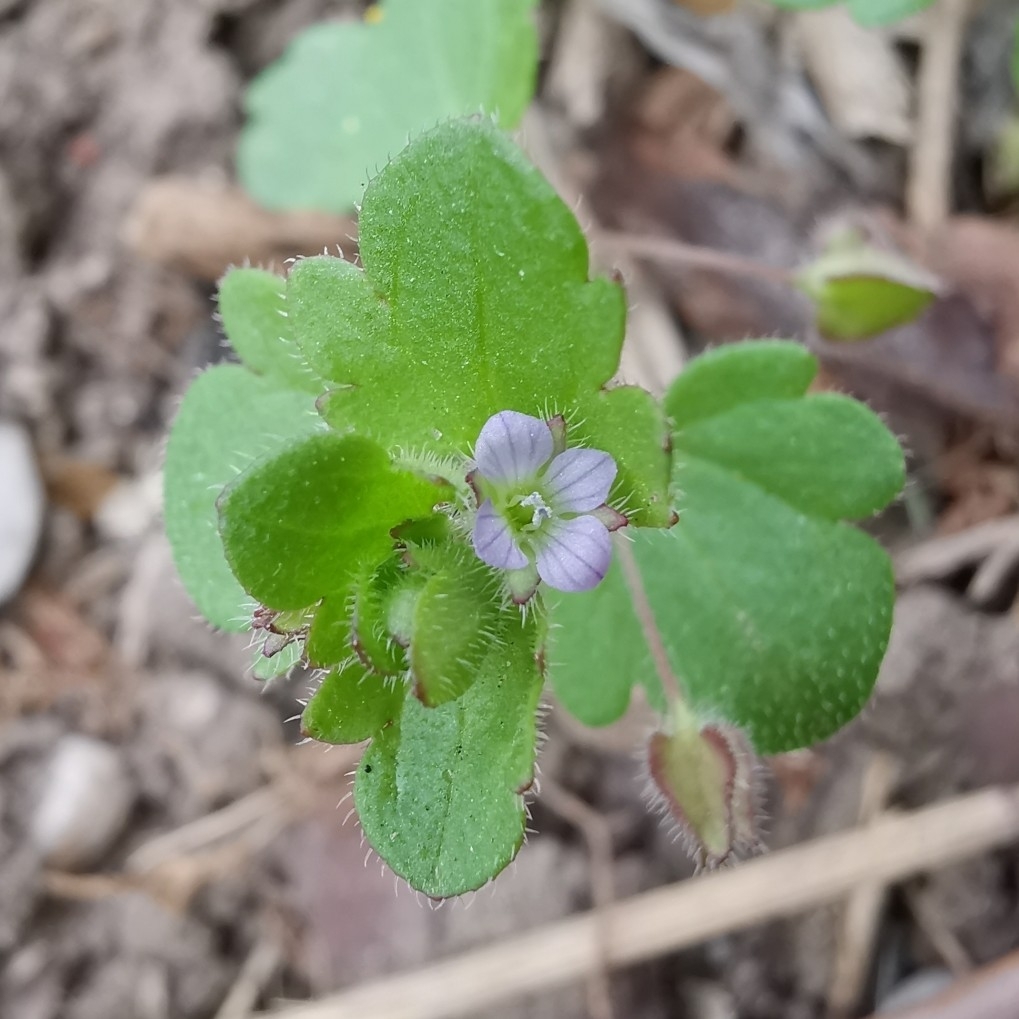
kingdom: Plantae
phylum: Tracheophyta
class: Magnoliopsida
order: Lamiales
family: Plantaginaceae
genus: Veronica
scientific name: Veronica sublobata
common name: False ivy-leaved speedwell
